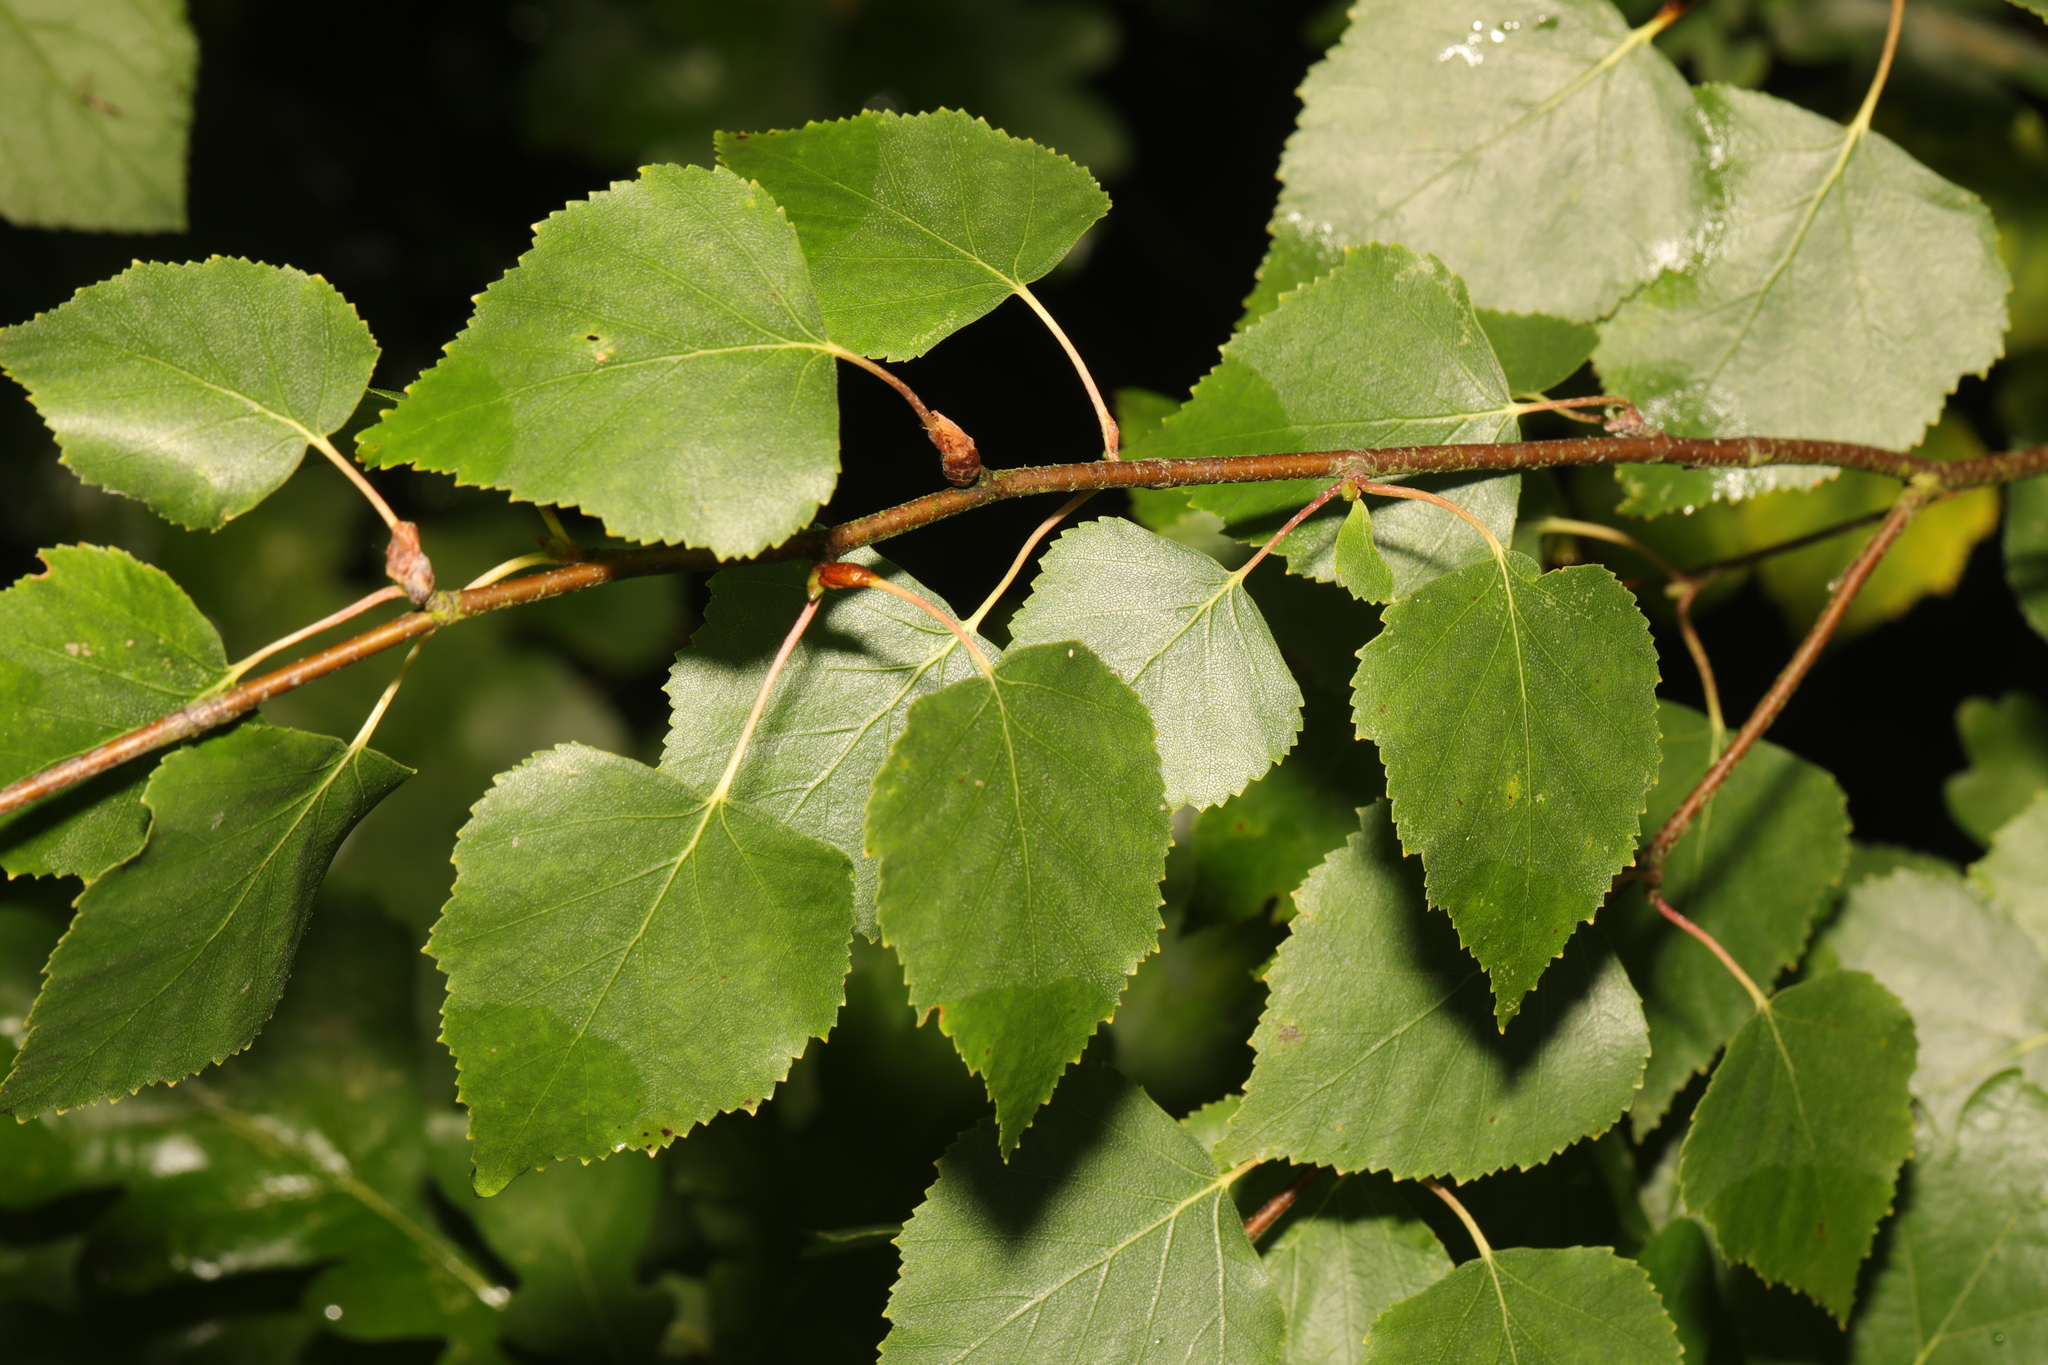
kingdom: Plantae
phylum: Tracheophyta
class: Magnoliopsida
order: Fagales
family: Betulaceae
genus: Betula
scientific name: Betula pendula
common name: Silver birch
